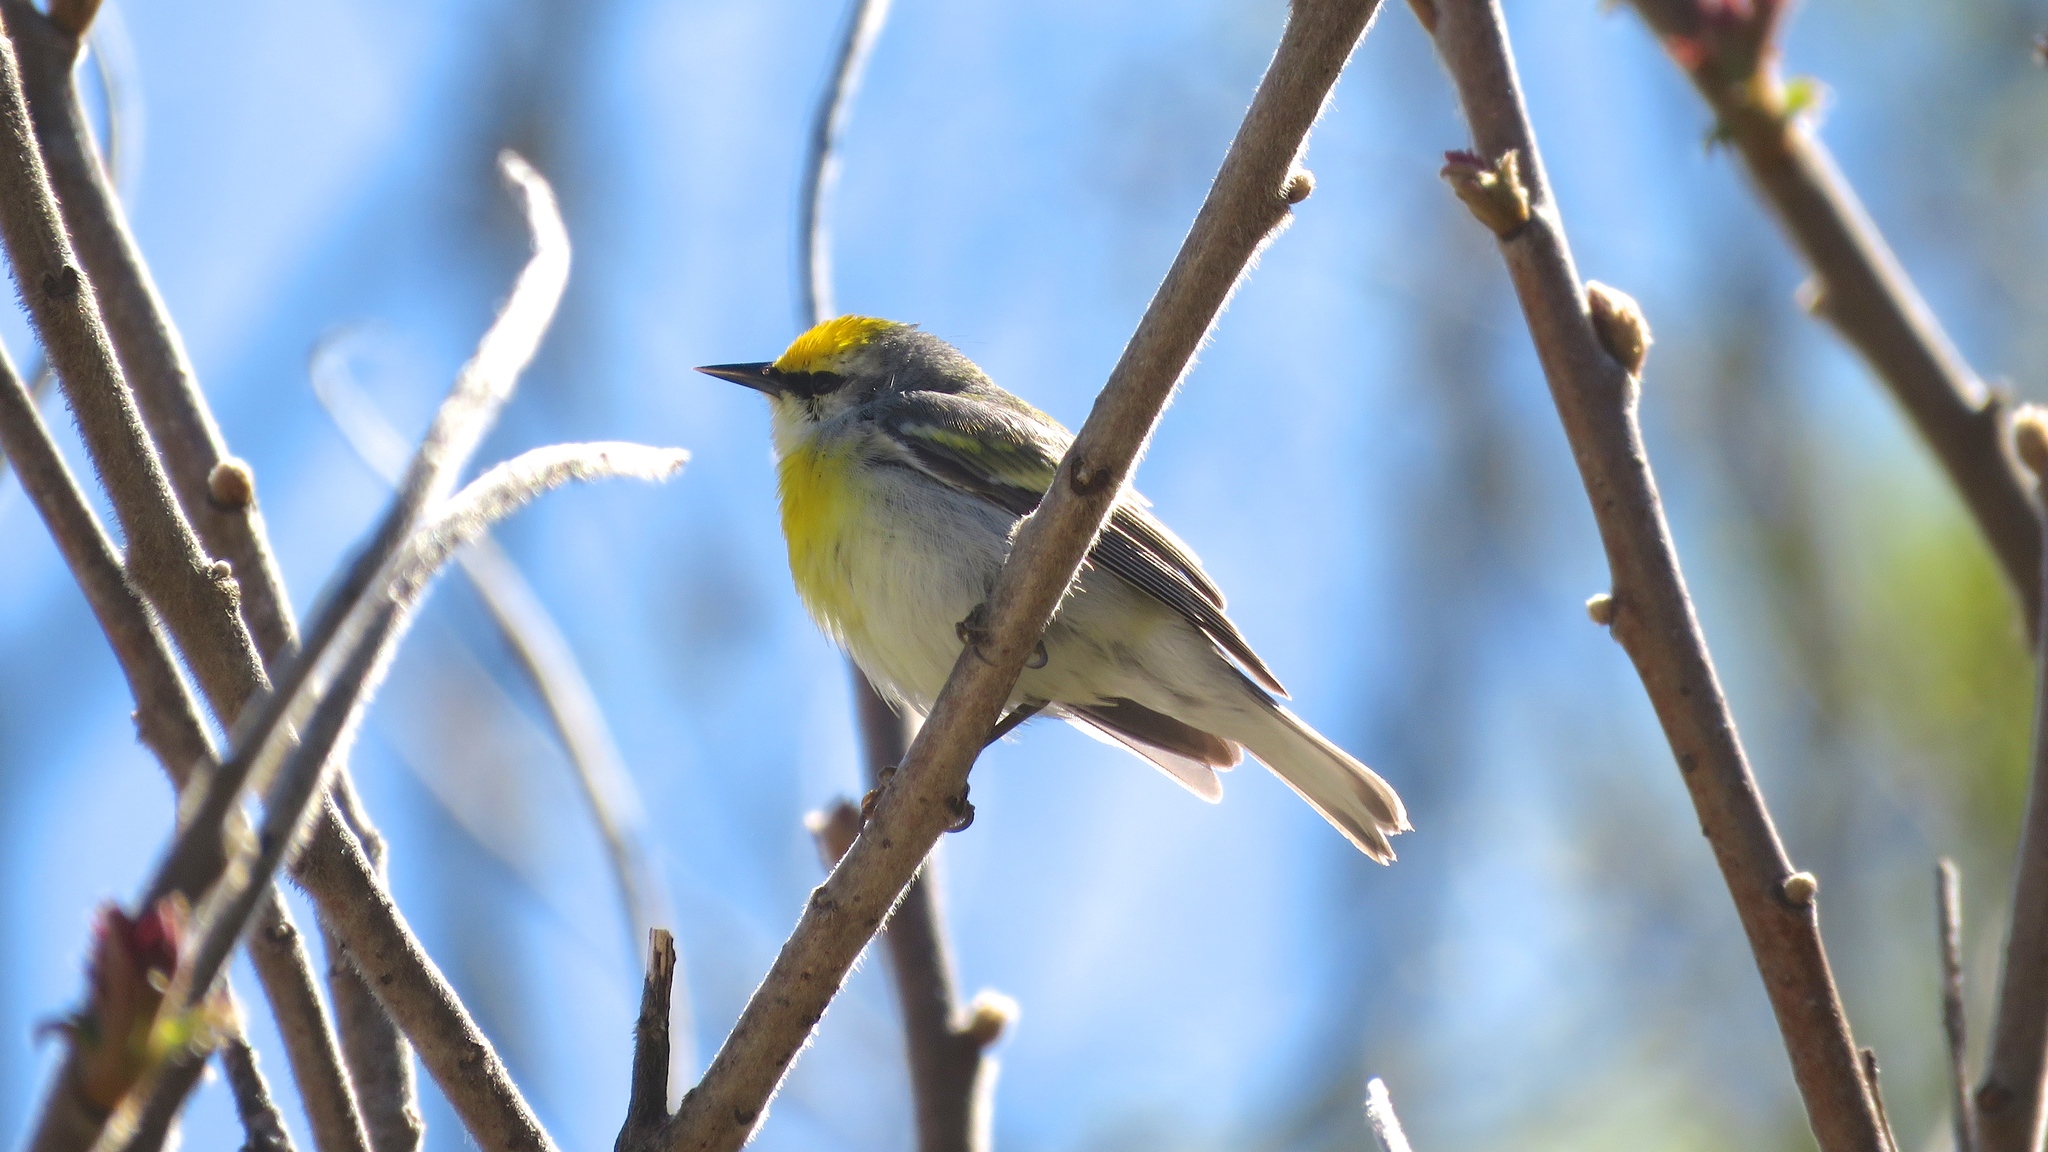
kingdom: Animalia
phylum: Chordata
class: Aves
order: Passeriformes
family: Parulidae
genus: Vermivora
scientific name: Vermivora
